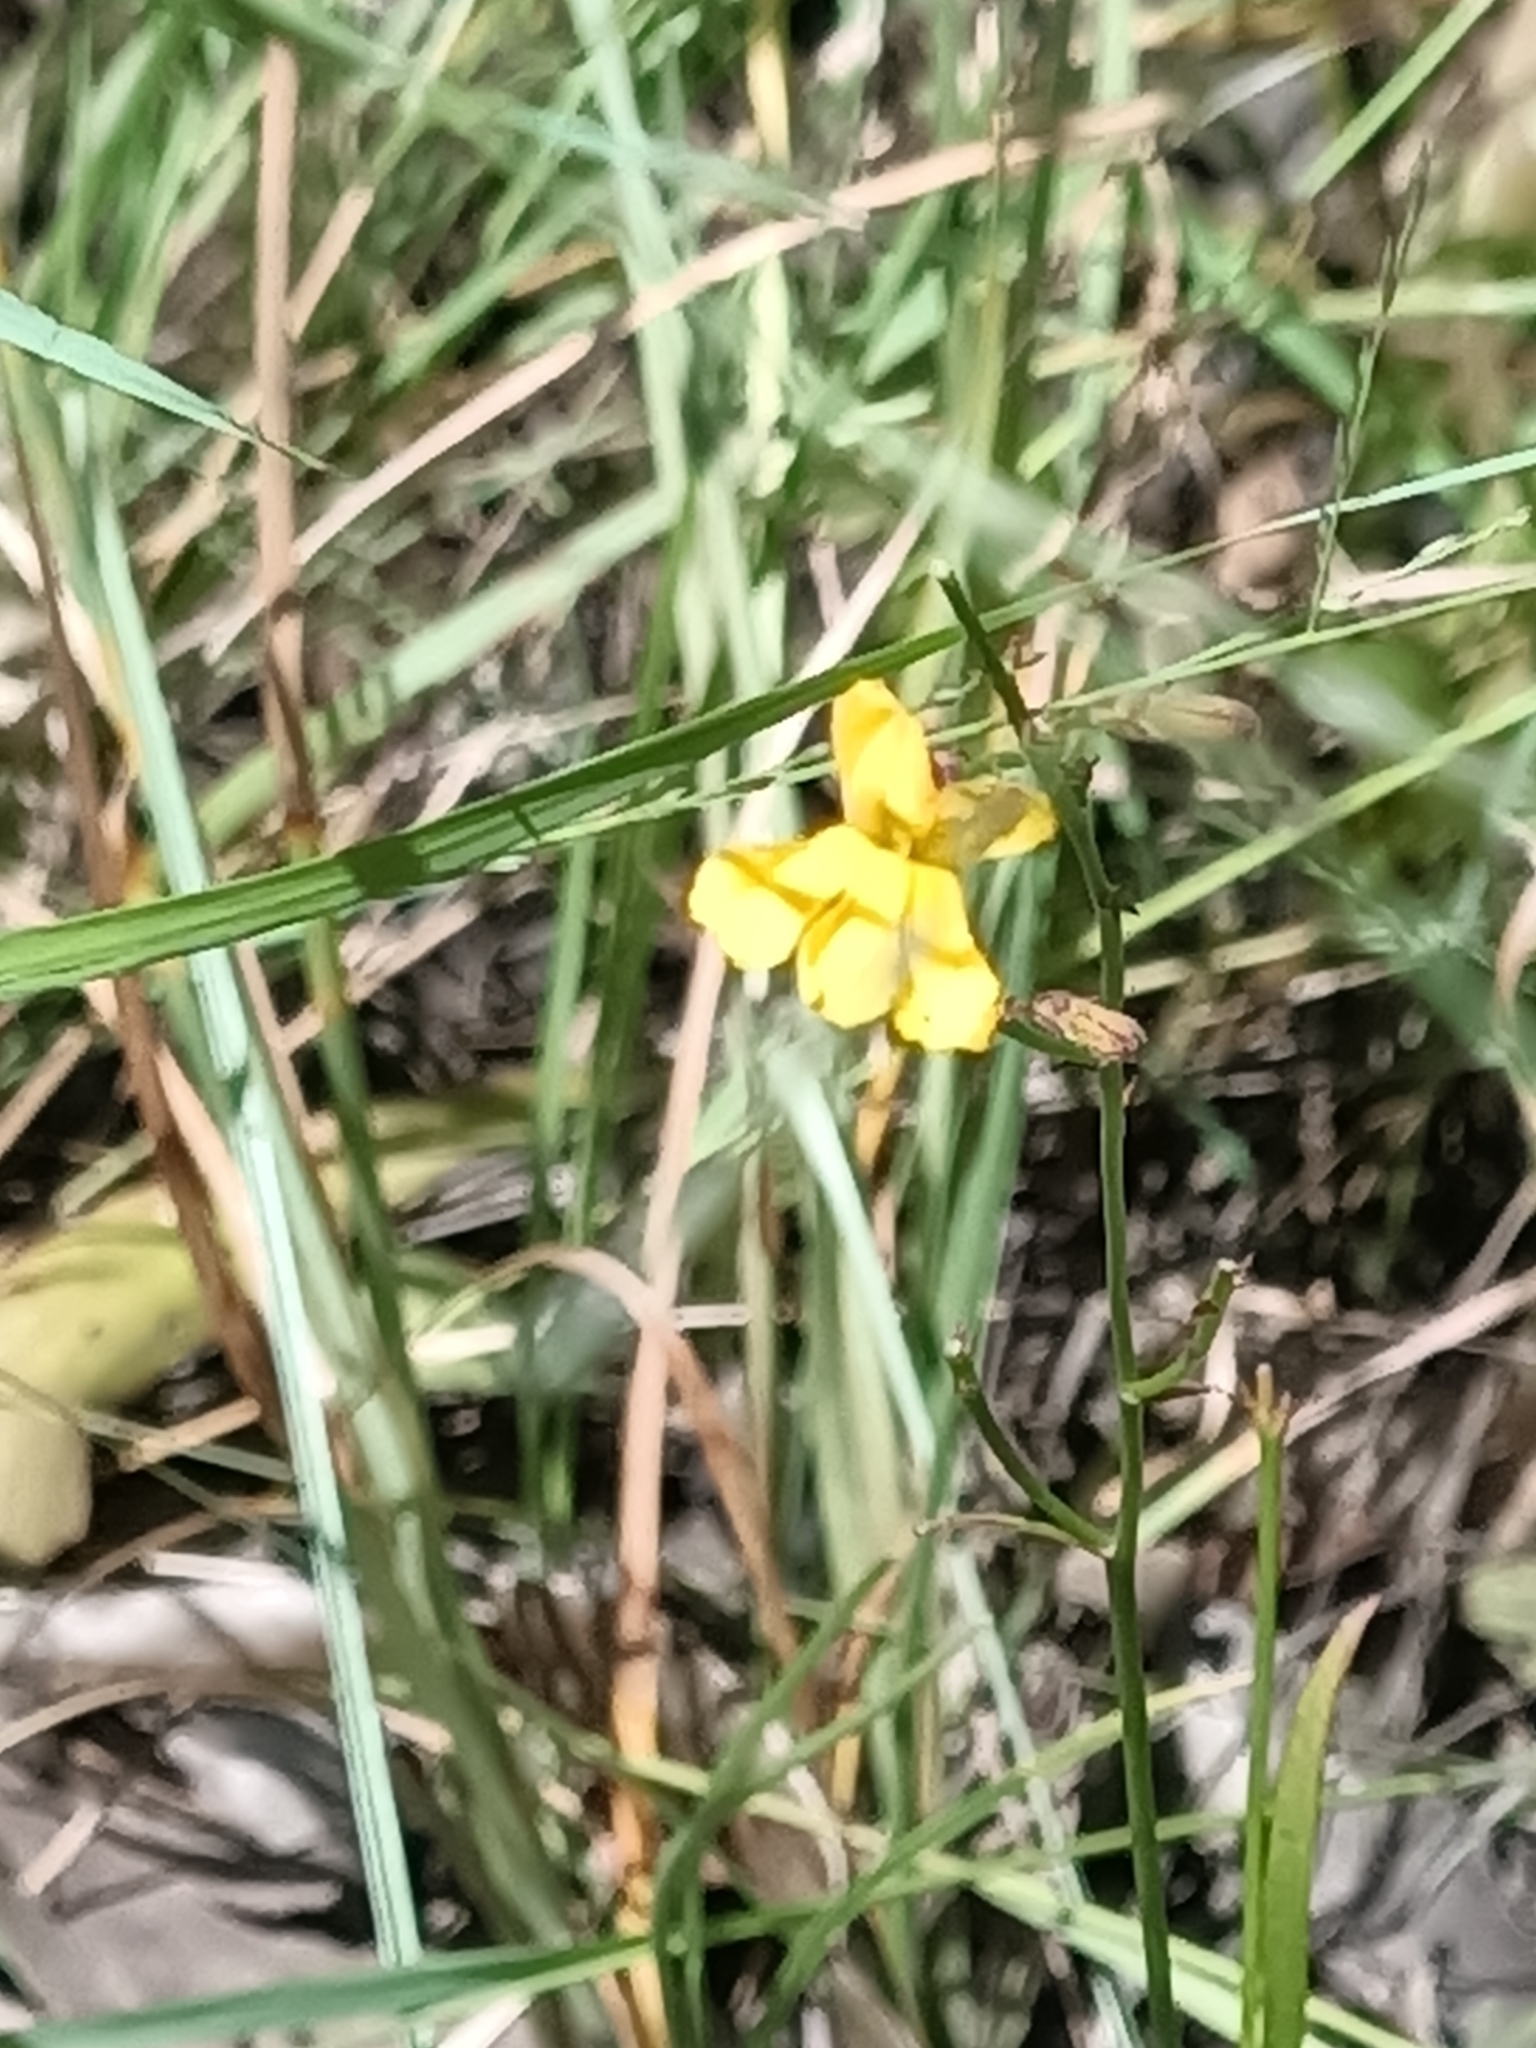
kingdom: Plantae
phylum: Tracheophyta
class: Magnoliopsida
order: Asterales
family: Goodeniaceae
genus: Goodenia
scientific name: Goodenia paniculata
